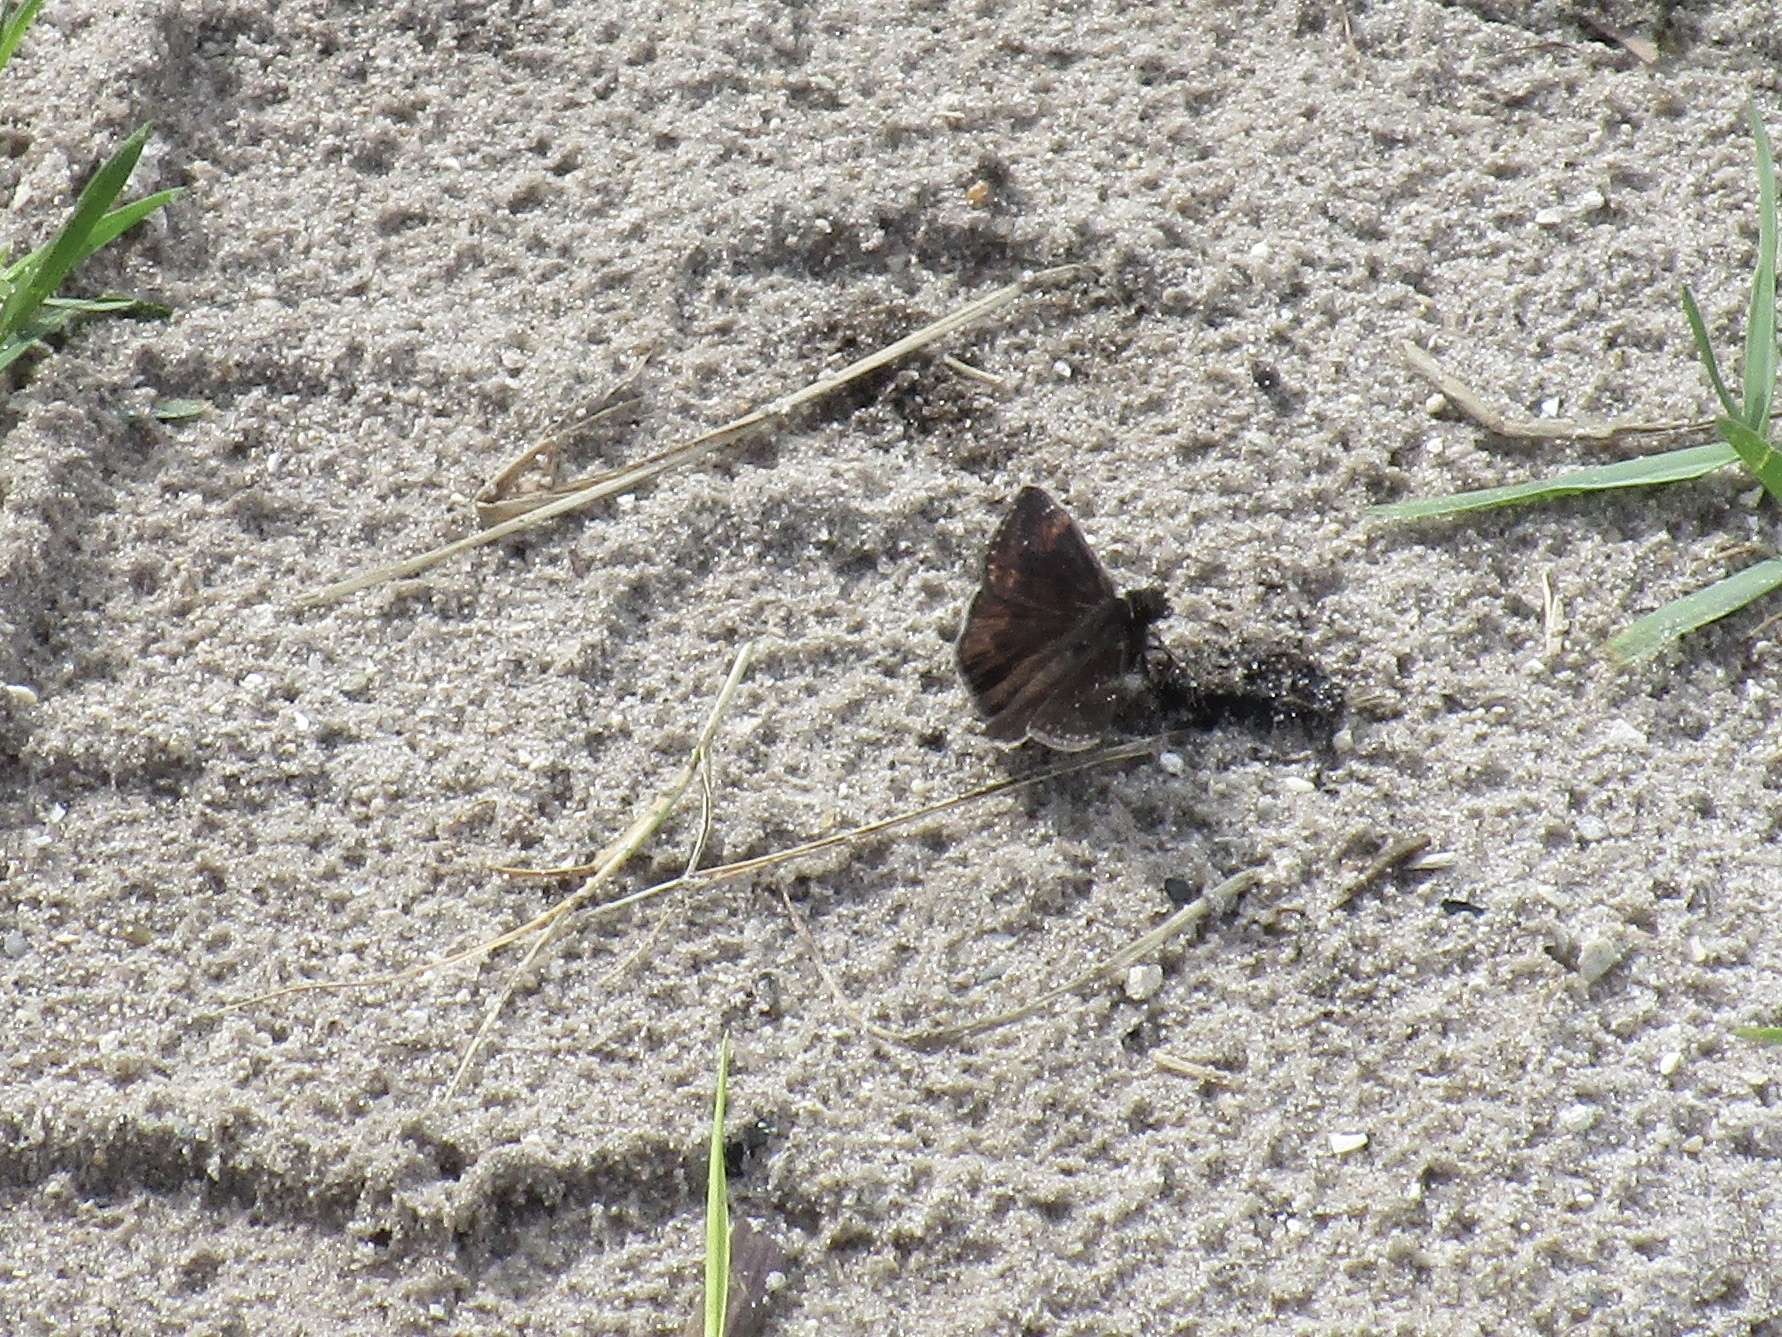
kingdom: Animalia
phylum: Arthropoda
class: Insecta
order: Lepidoptera
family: Hesperiidae
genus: Erynnis
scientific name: Erynnis zarucco
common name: Zarucco duskywing
